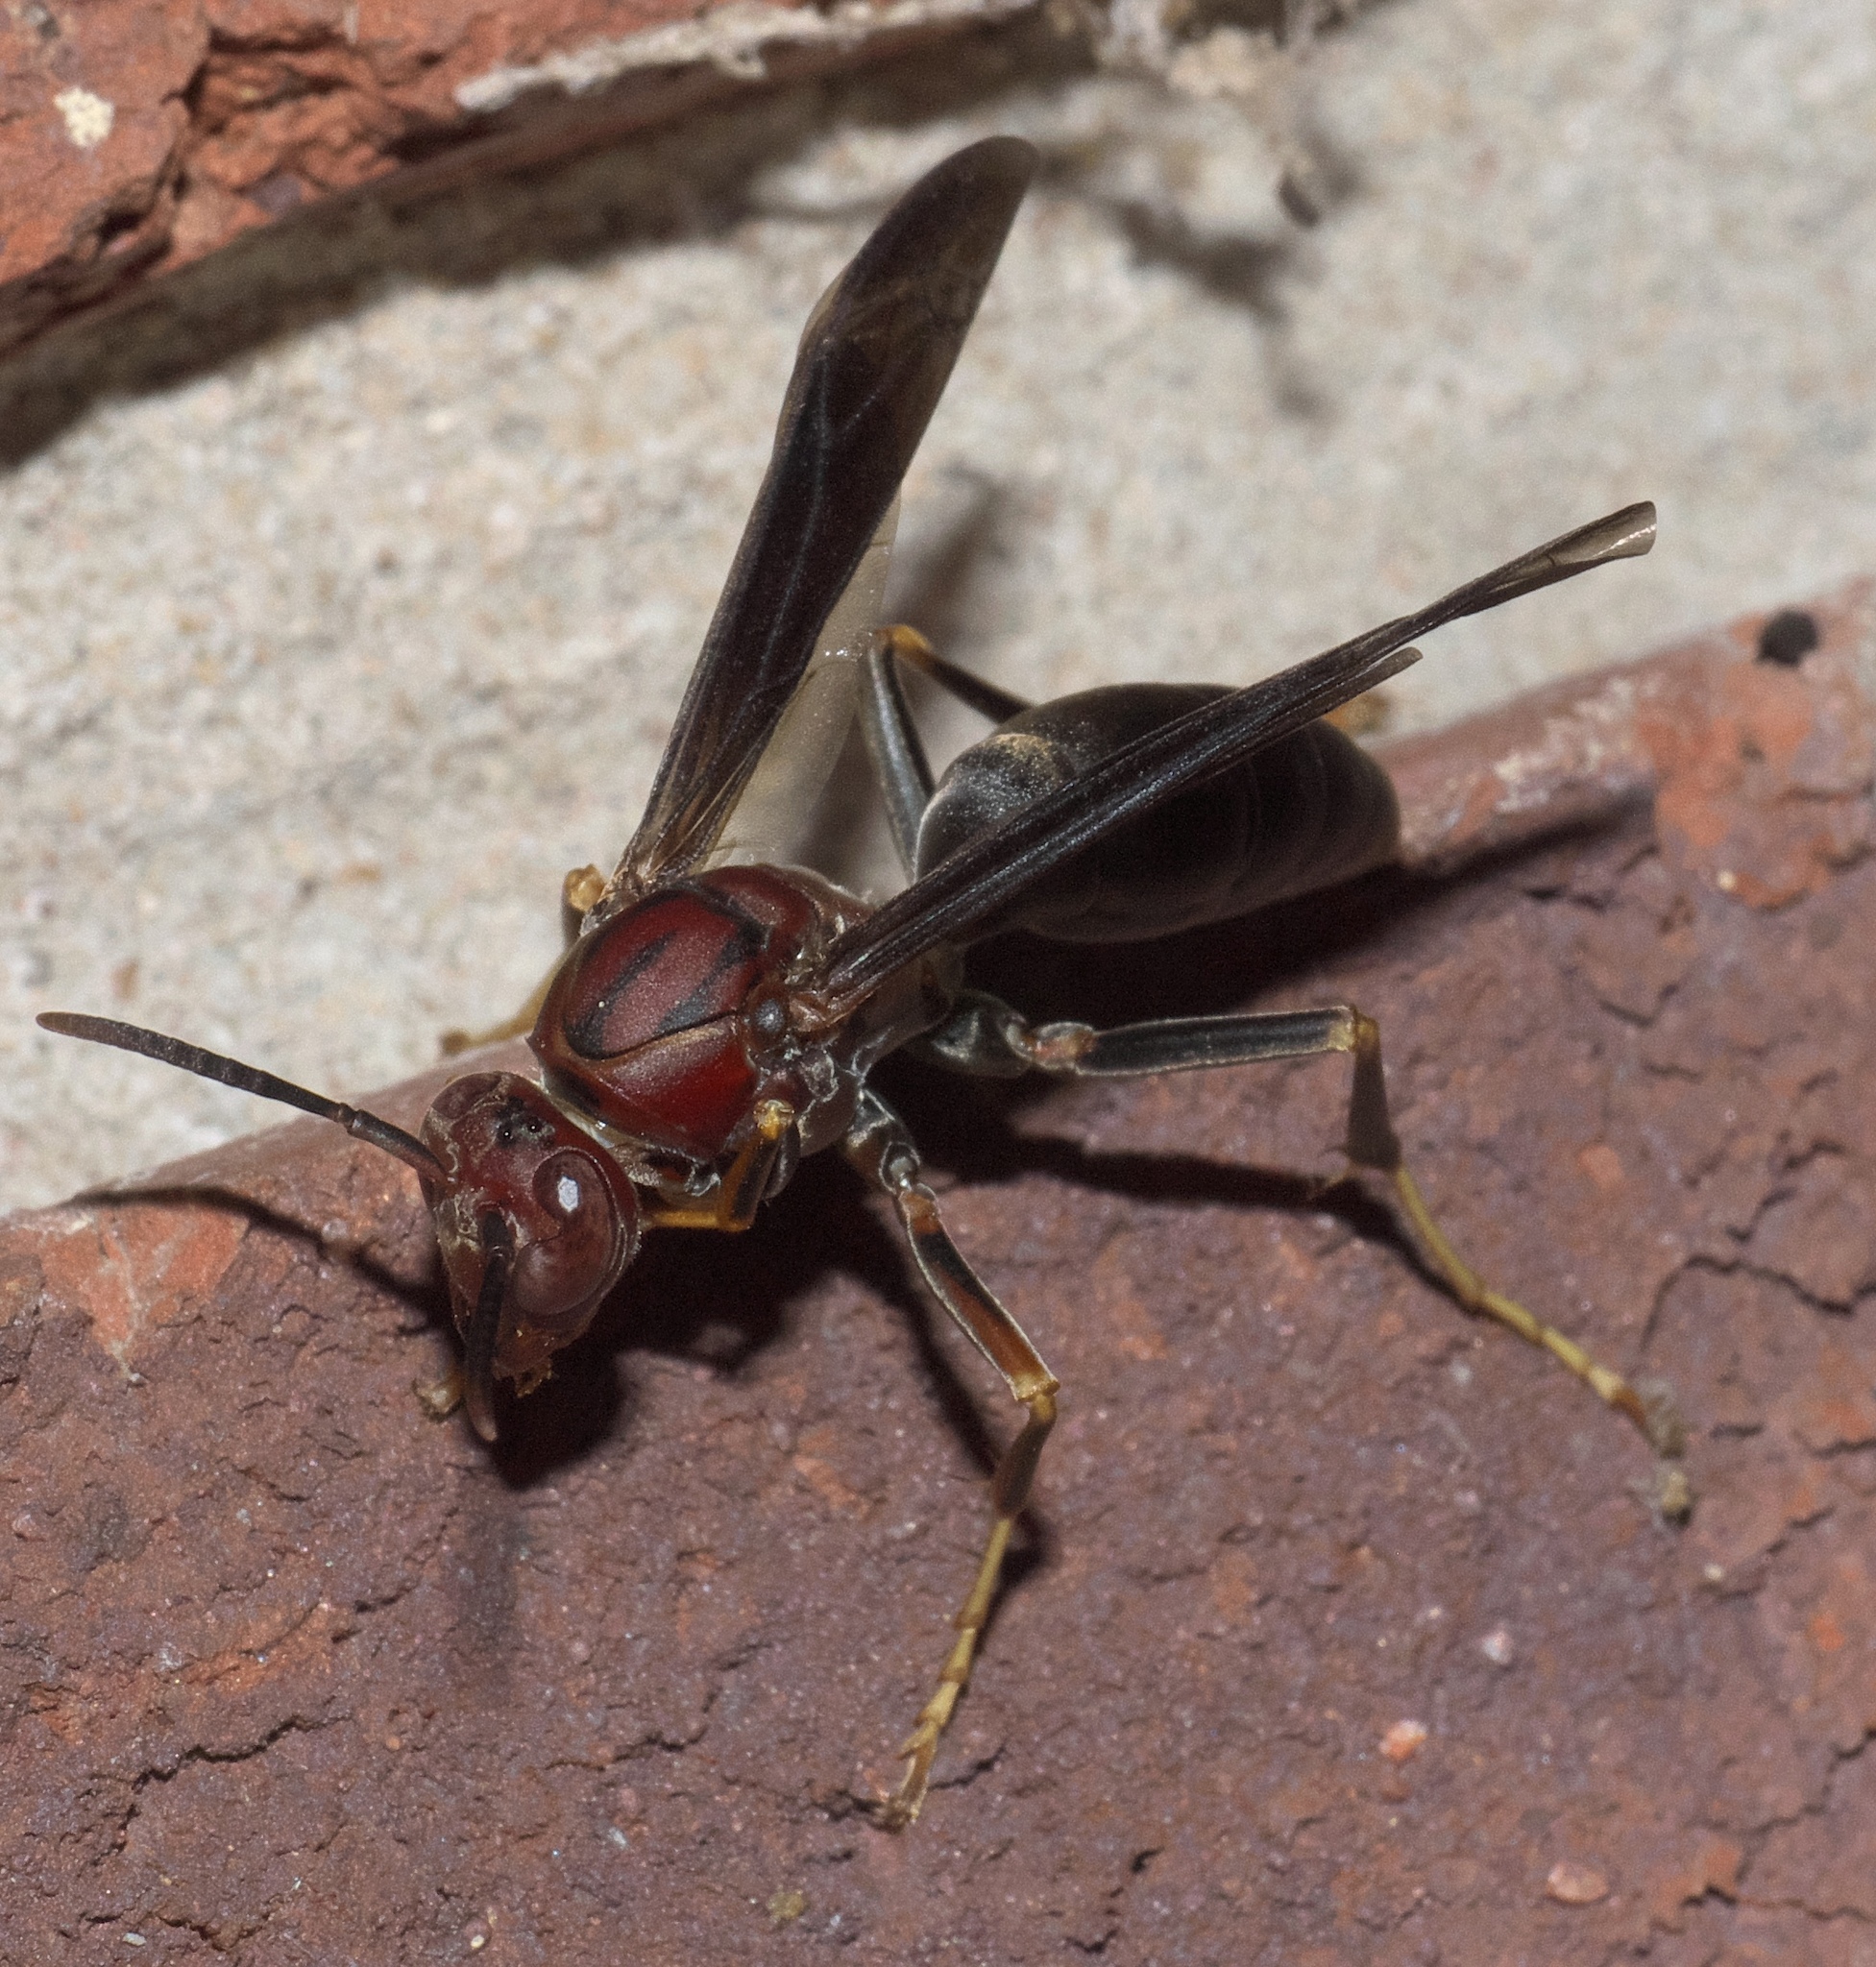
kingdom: Animalia
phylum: Arthropoda
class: Insecta
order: Hymenoptera
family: Eumenidae
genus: Polistes
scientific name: Polistes metricus
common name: Metric paper wasp
